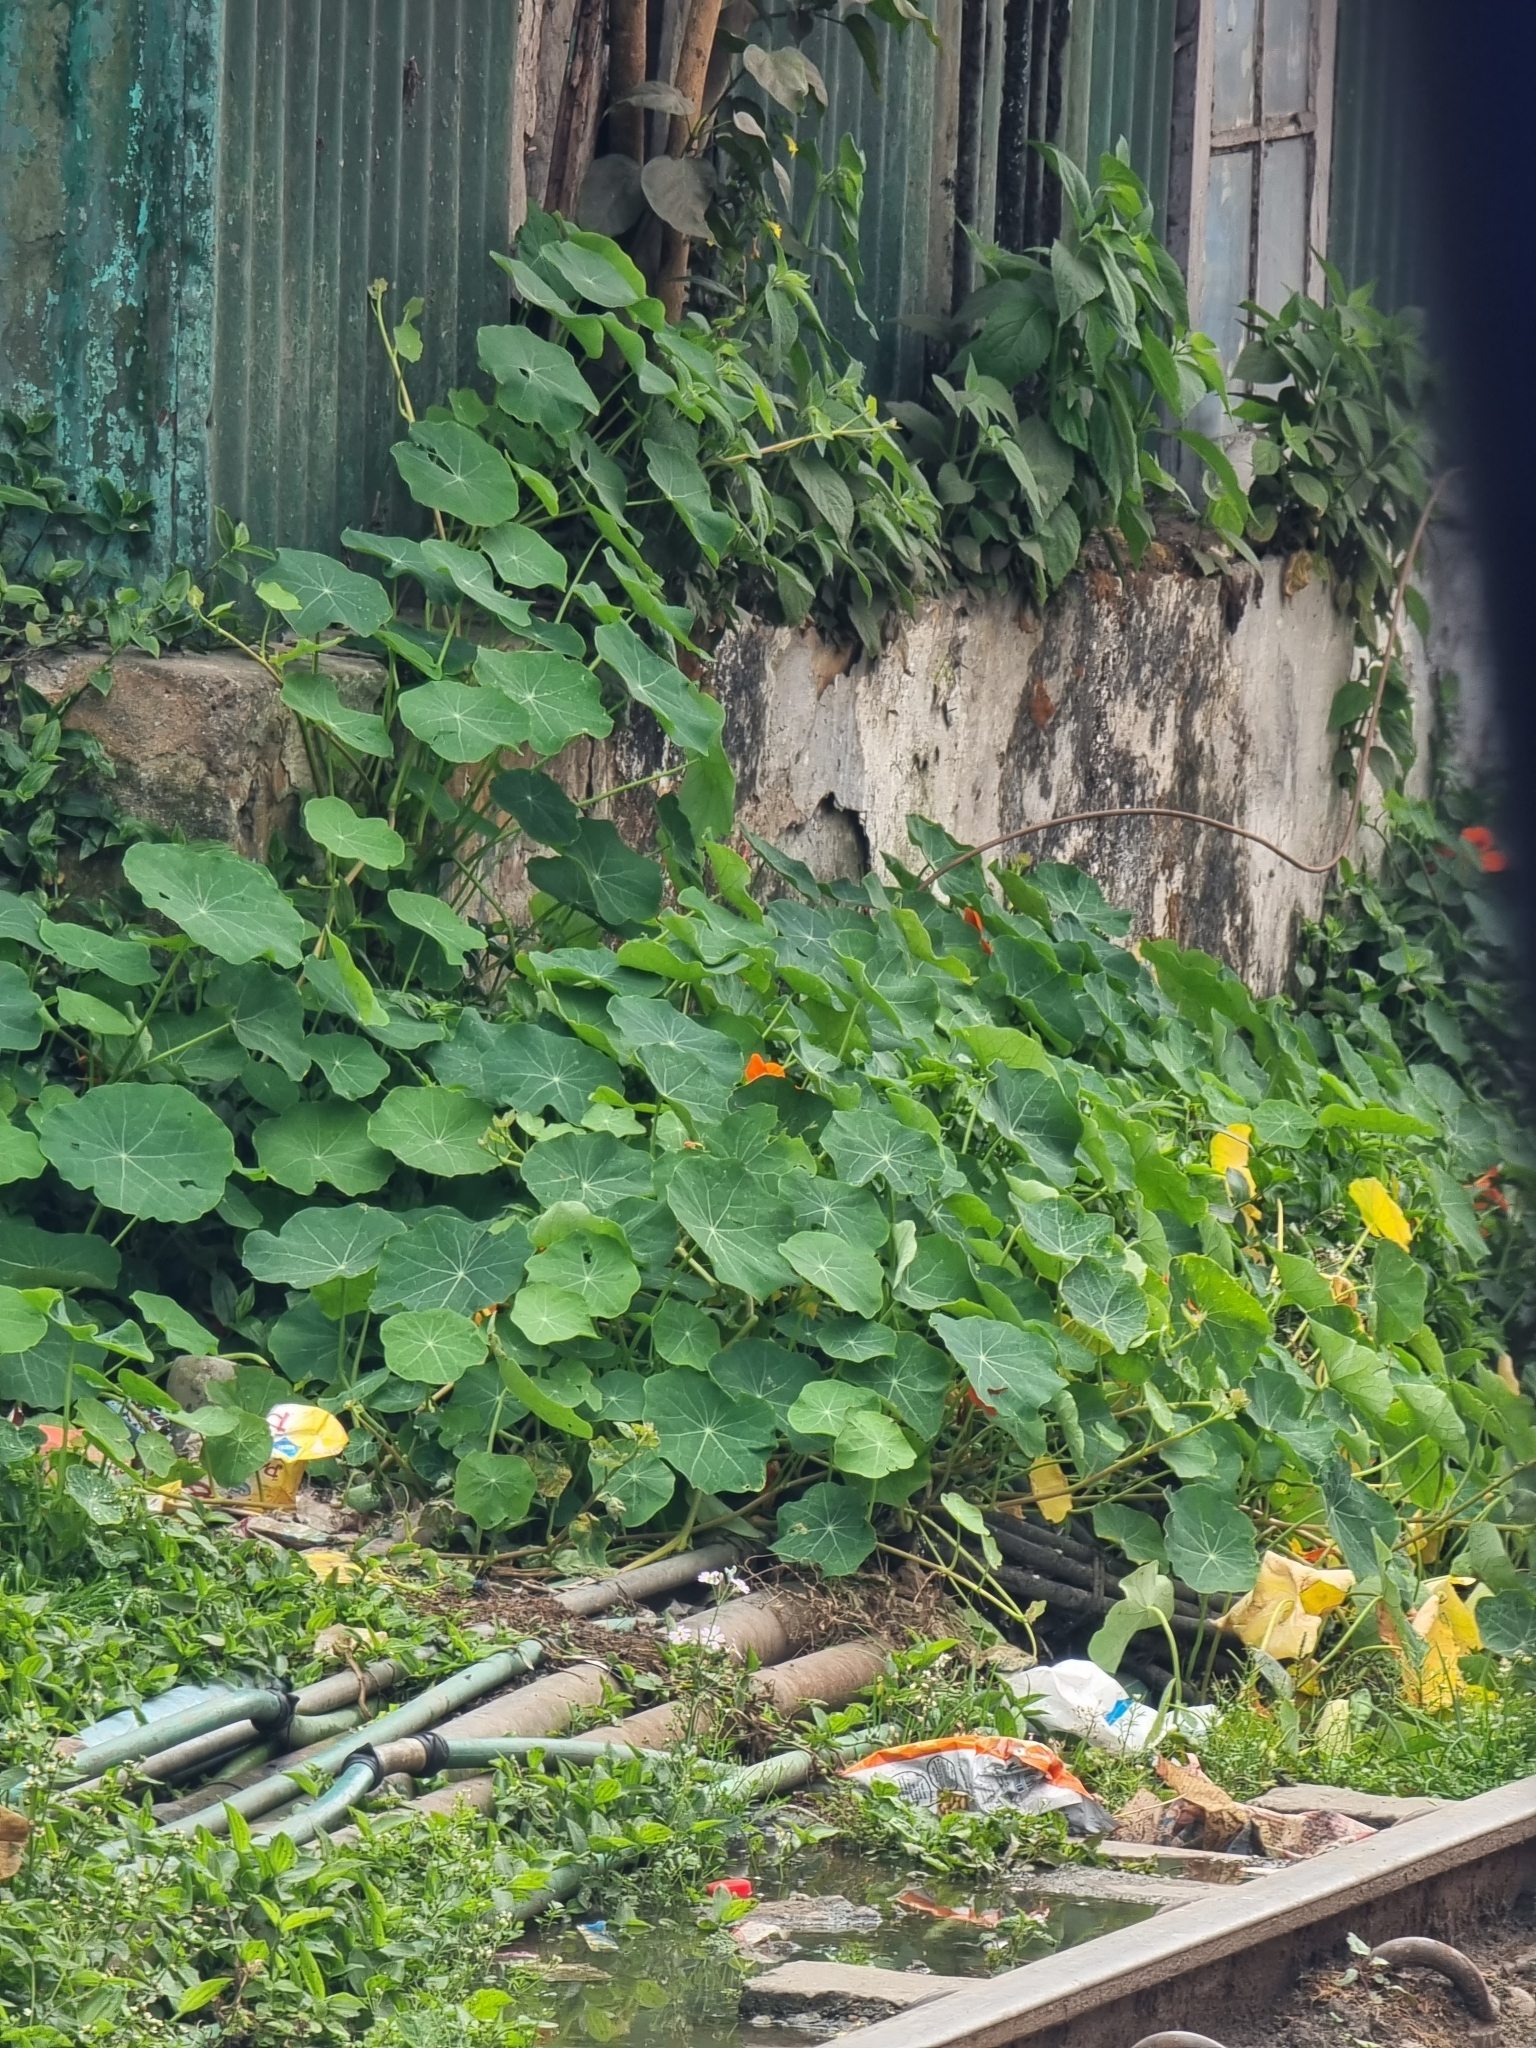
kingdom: Plantae
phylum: Tracheophyta
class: Magnoliopsida
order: Brassicales
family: Tropaeolaceae
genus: Tropaeolum
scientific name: Tropaeolum majus
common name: Nasturtium
